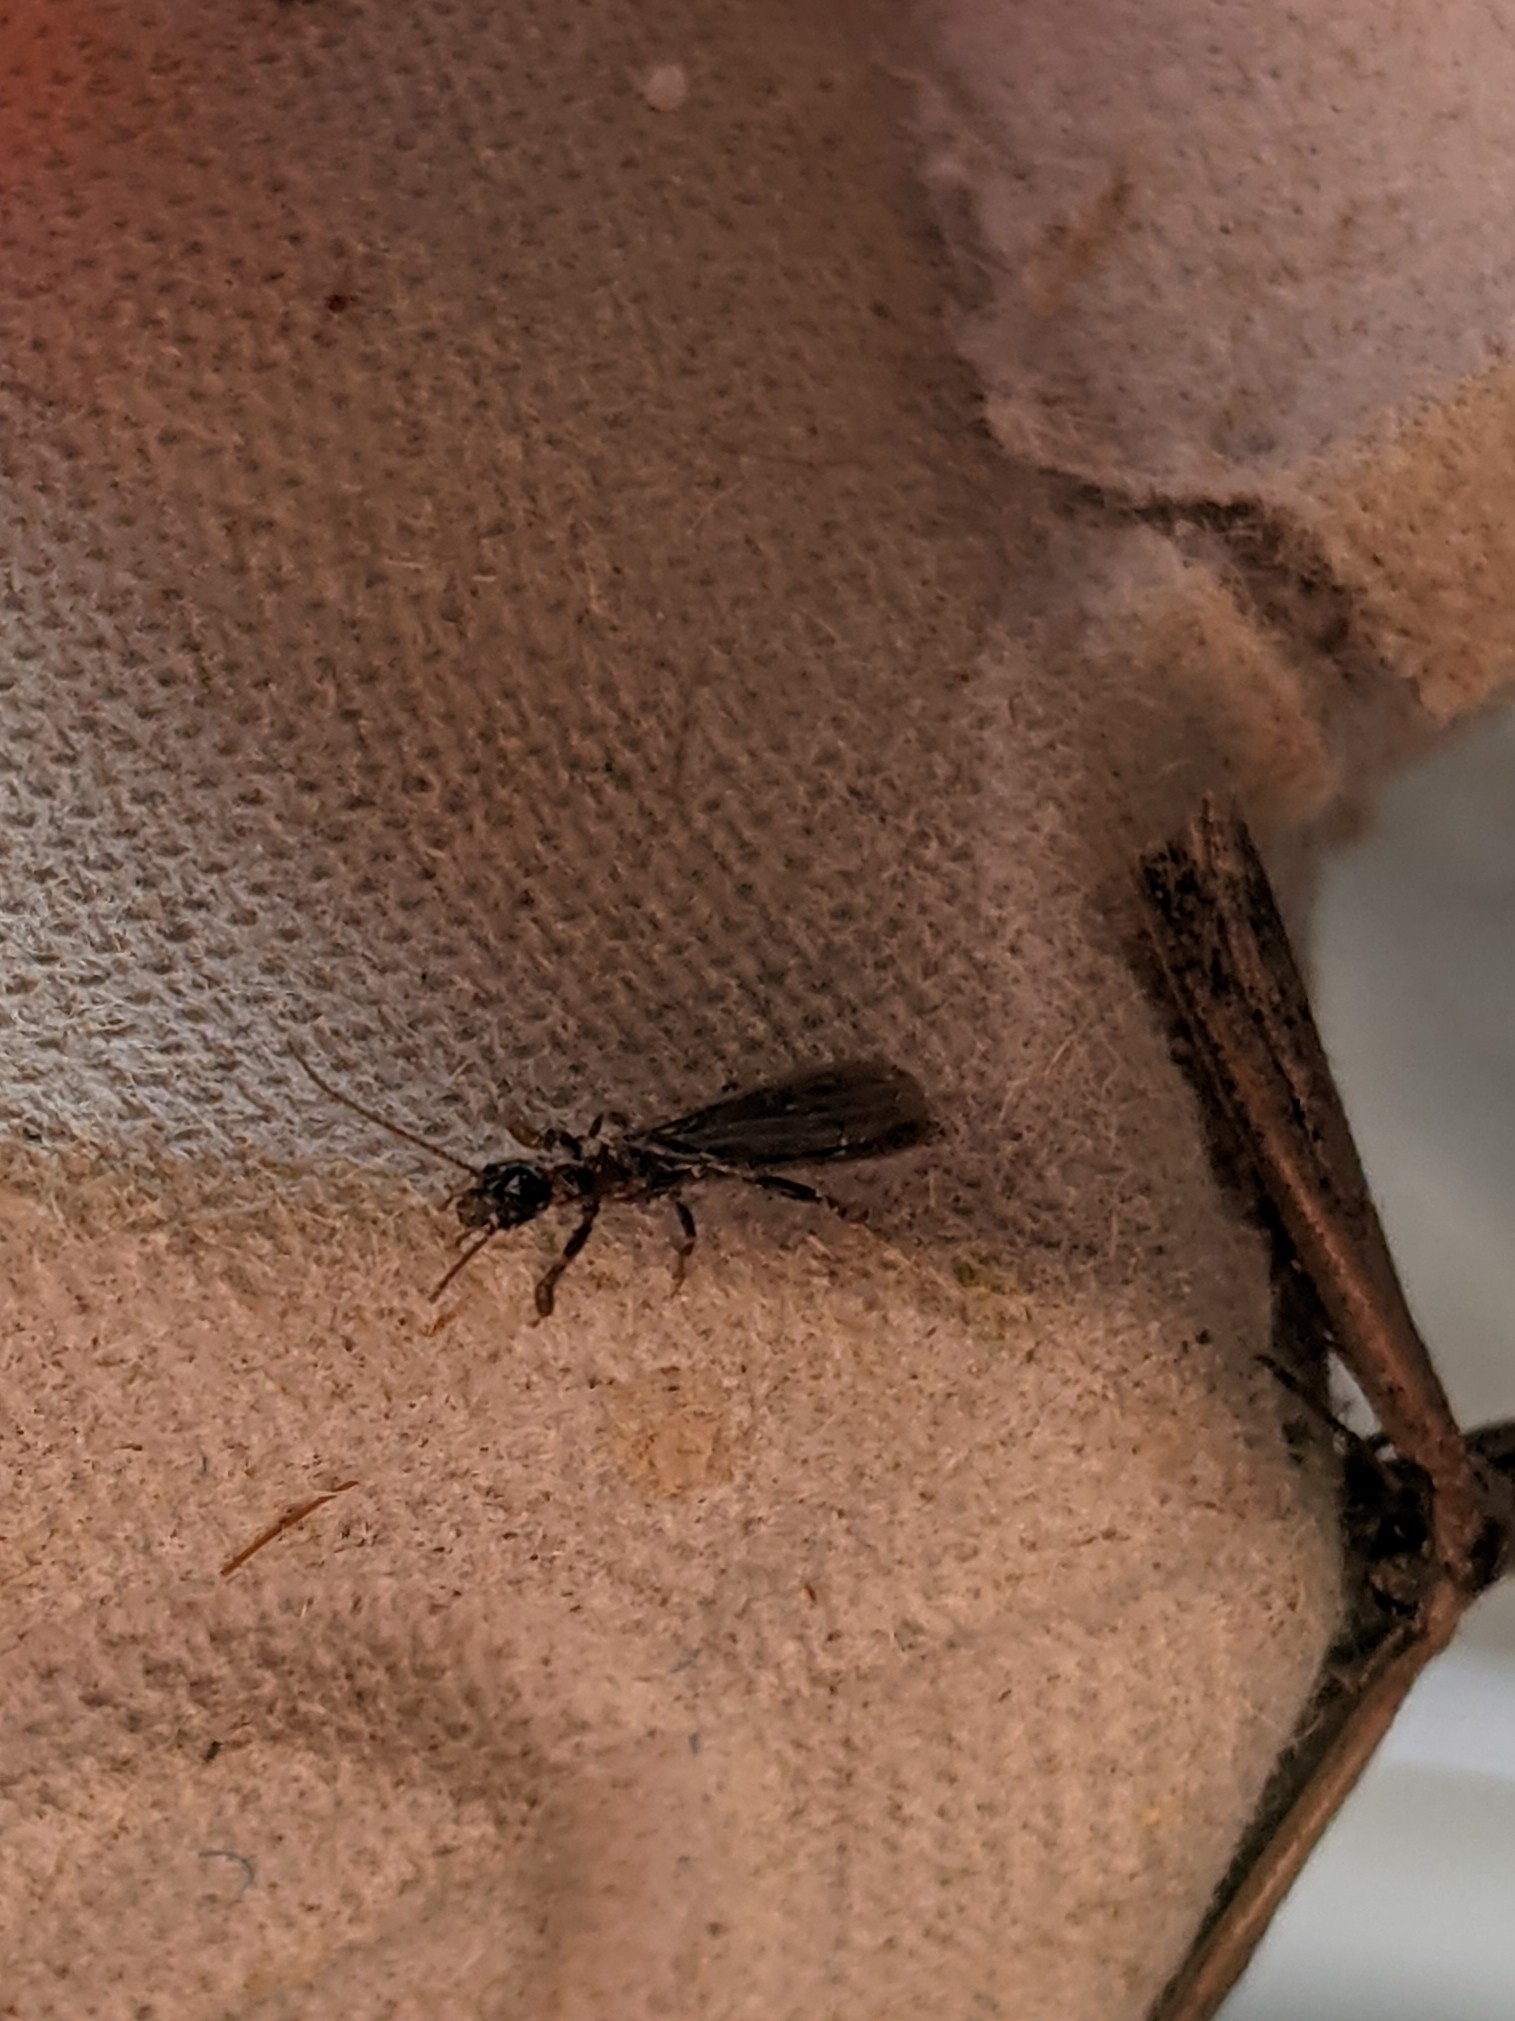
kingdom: Animalia
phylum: Arthropoda
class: Insecta
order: Embioptera
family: Oligotomidae
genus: Oligotoma
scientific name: Oligotoma nigra
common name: Black webspinner
